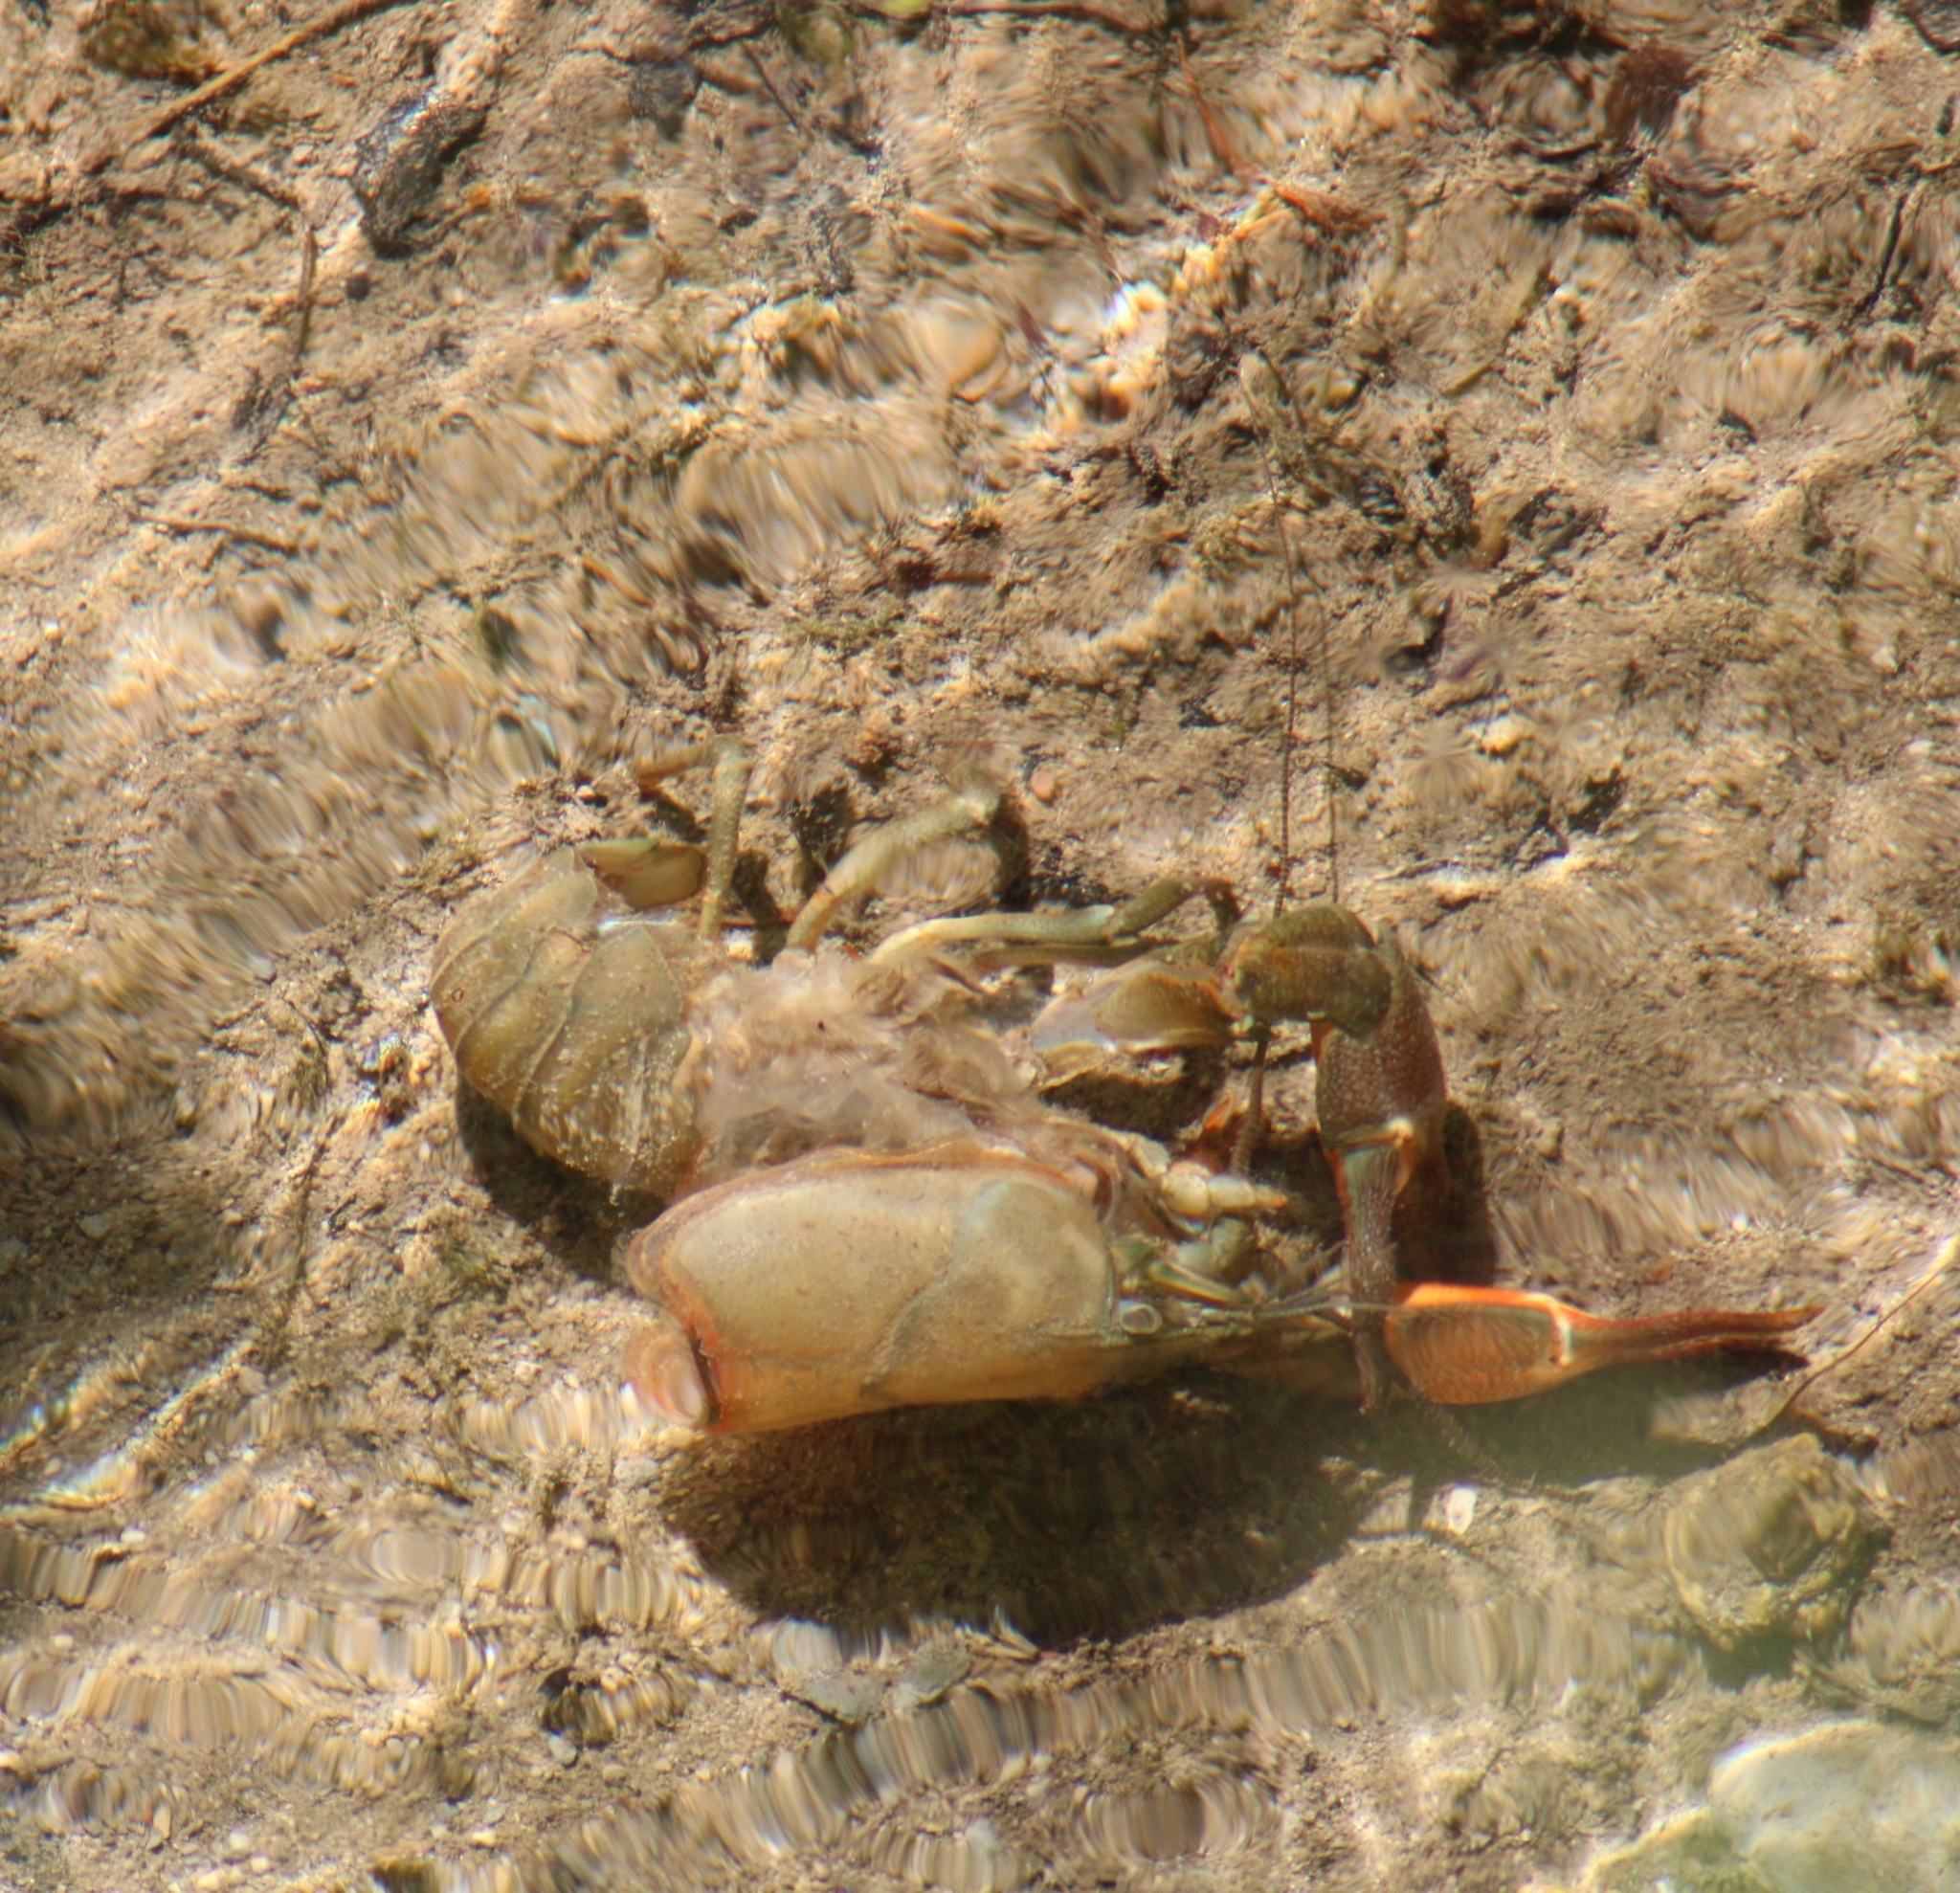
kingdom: Animalia
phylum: Arthropoda
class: Malacostraca
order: Decapoda
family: Astacidae
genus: Pacifastacus
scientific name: Pacifastacus leniusculus
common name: Signal crayfish
